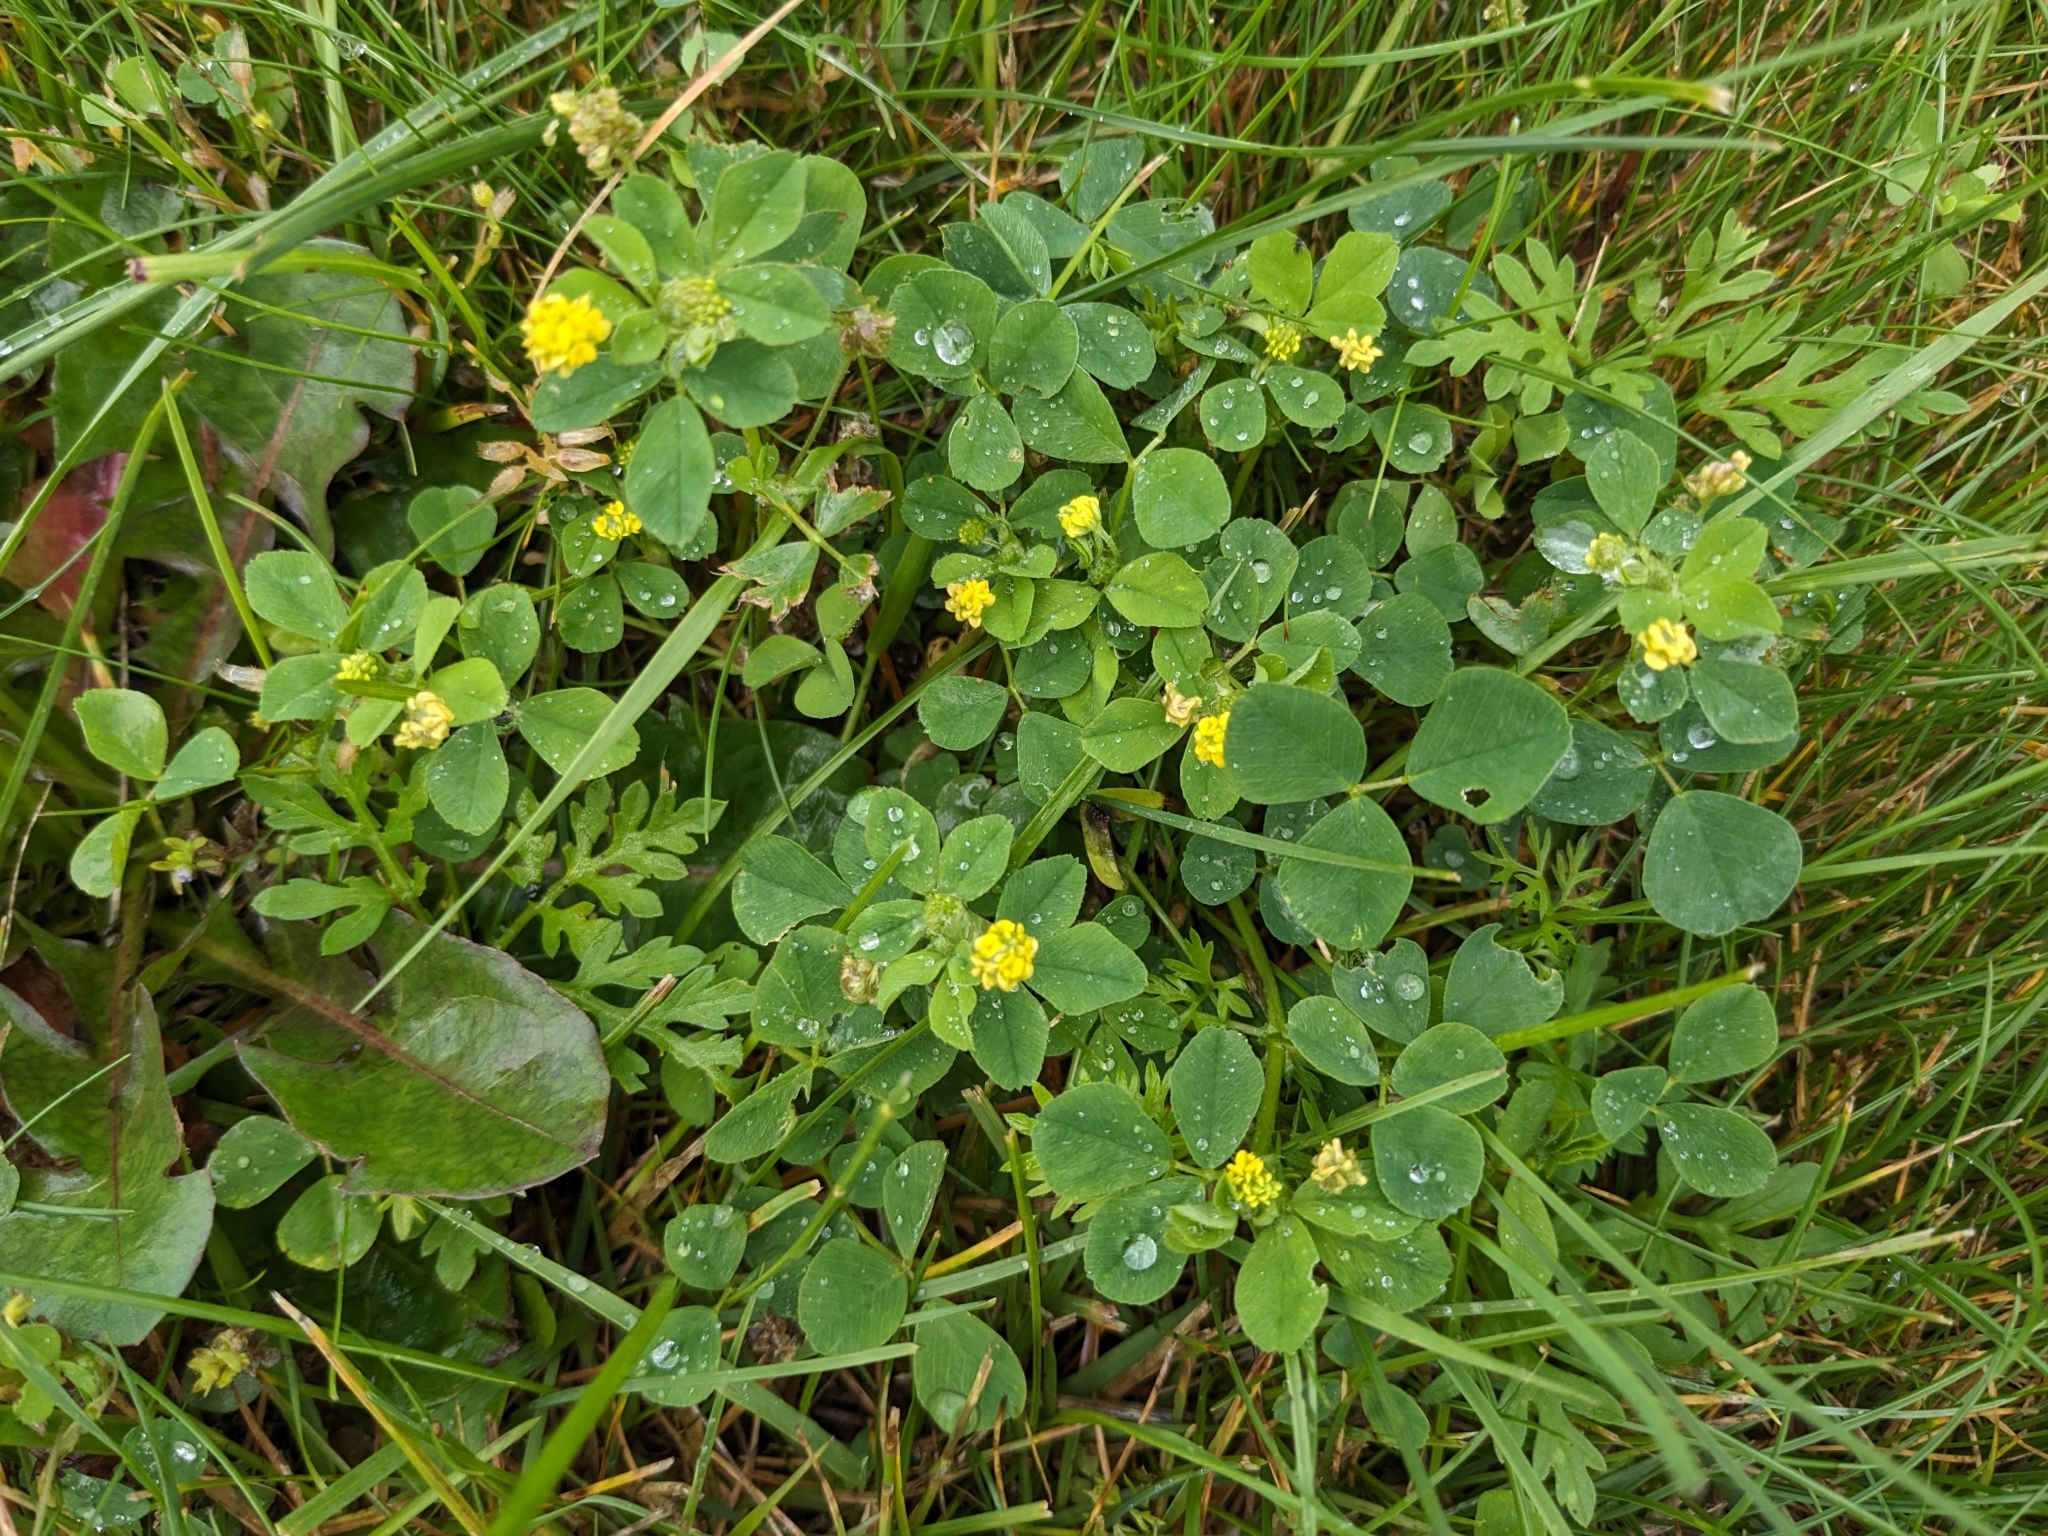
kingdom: Plantae
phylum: Tracheophyta
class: Magnoliopsida
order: Fabales
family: Fabaceae
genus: Medicago
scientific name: Medicago lupulina
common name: Black medick
